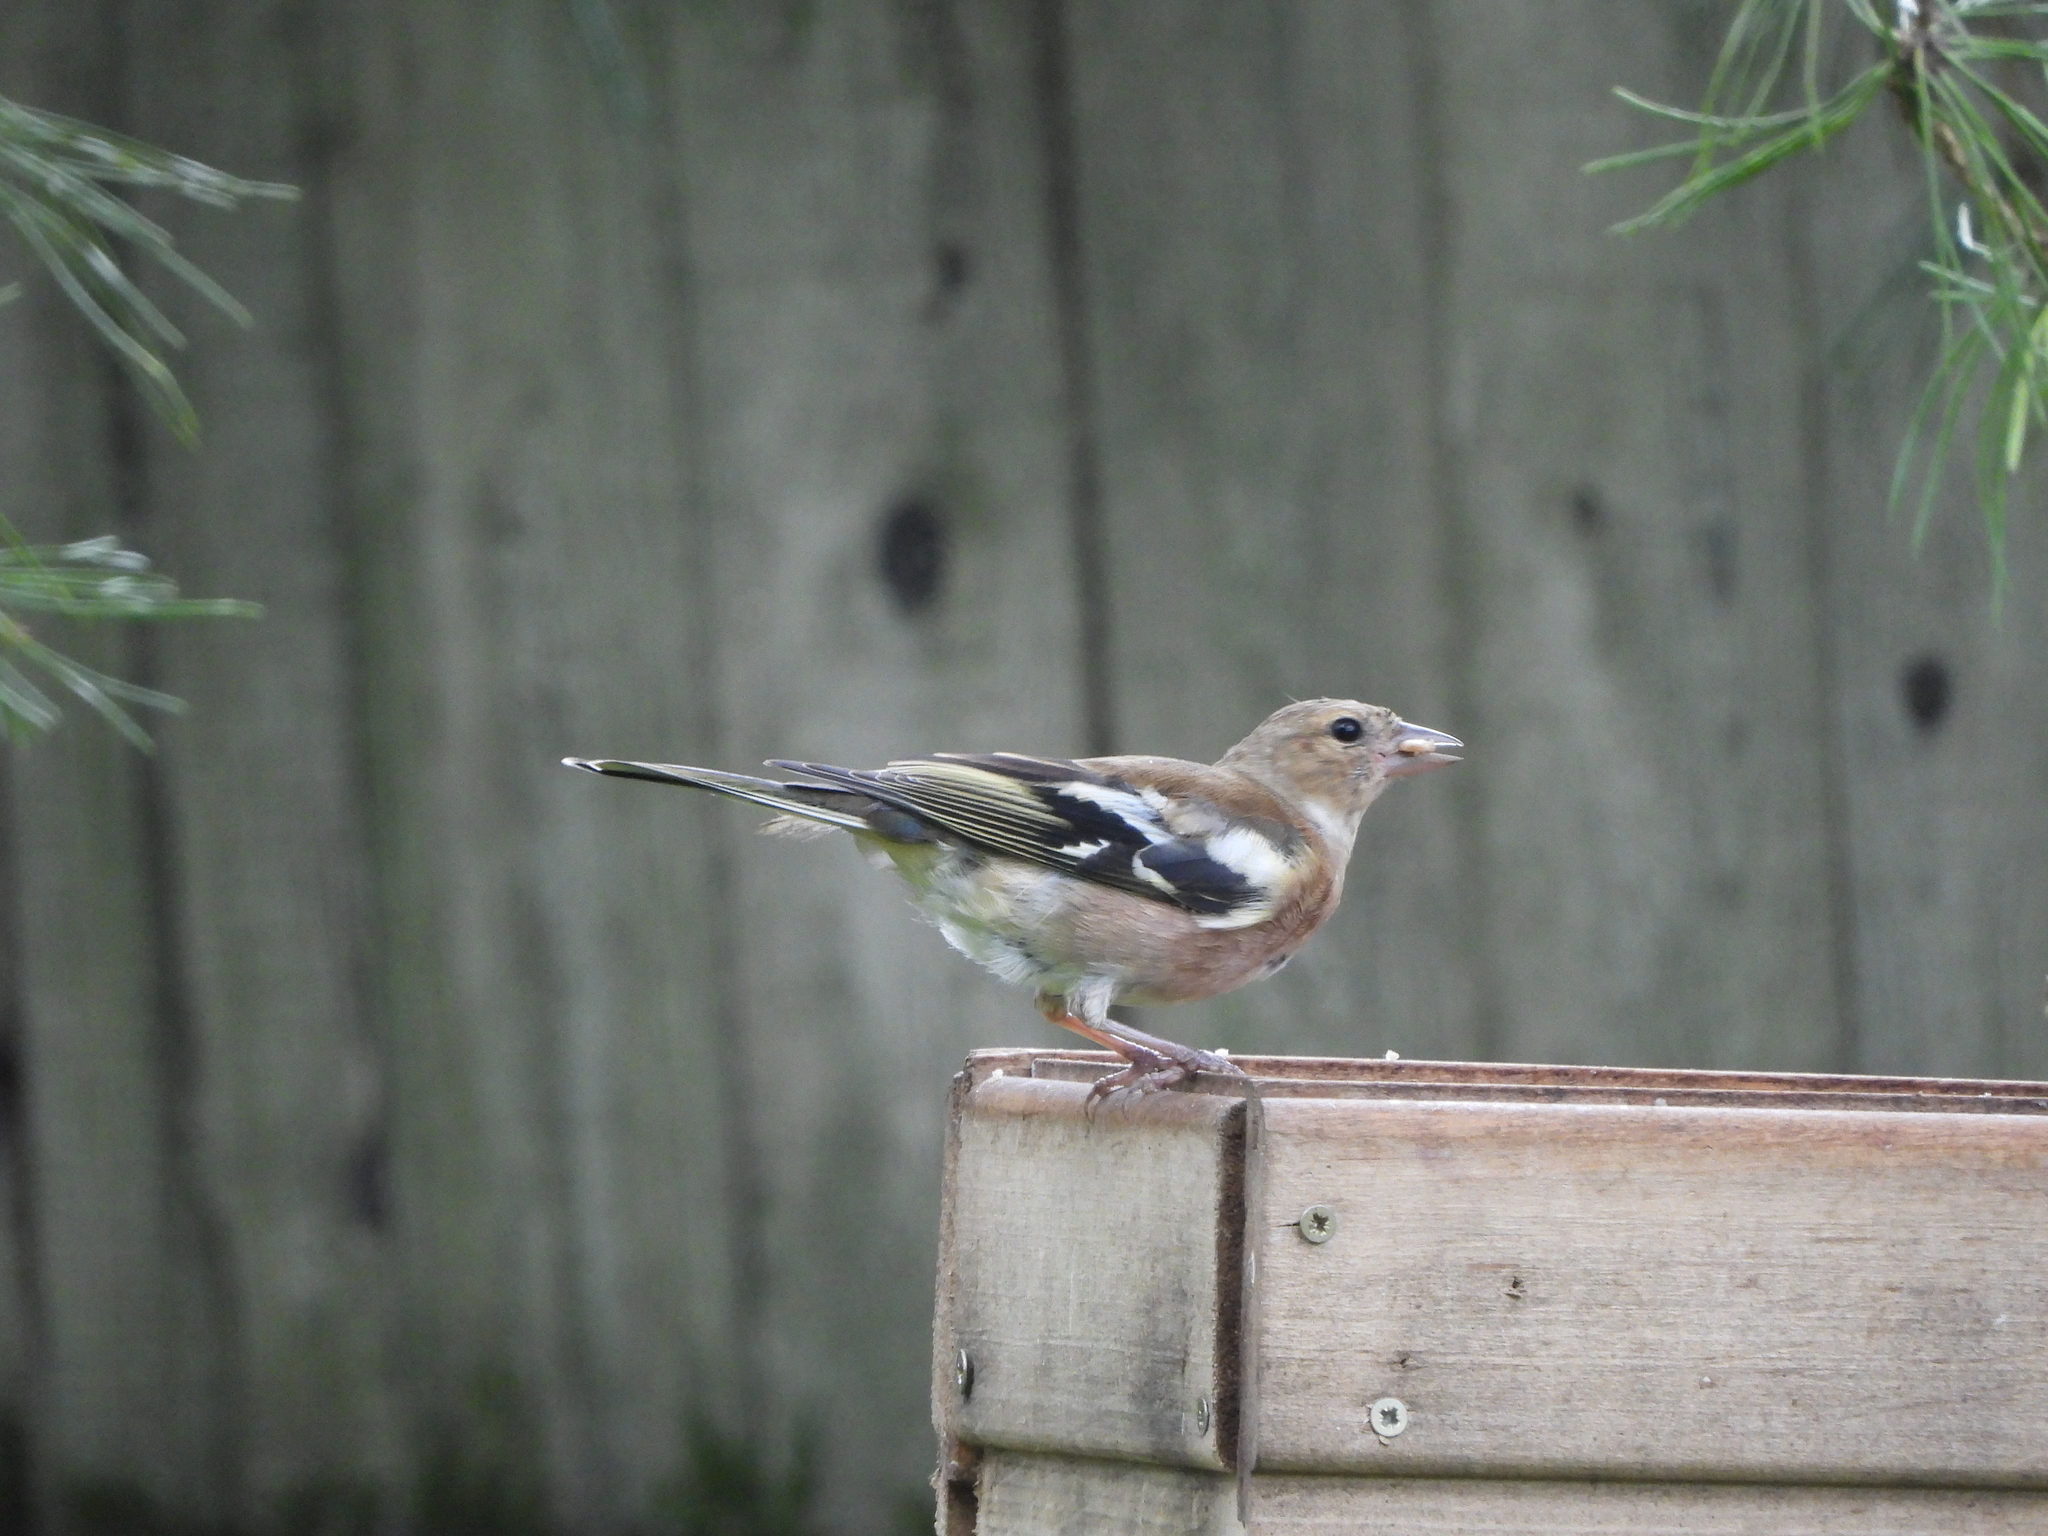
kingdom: Animalia
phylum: Chordata
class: Aves
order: Passeriformes
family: Fringillidae
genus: Fringilla
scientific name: Fringilla coelebs
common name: Common chaffinch
